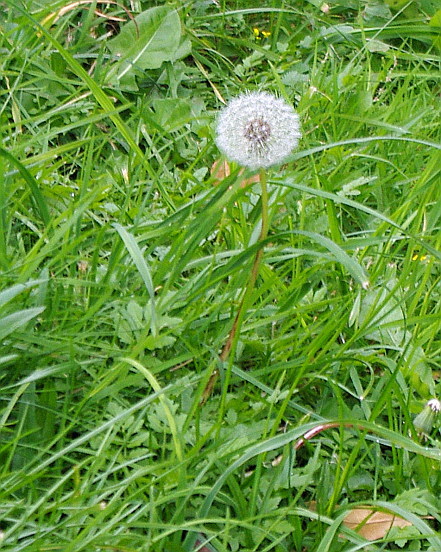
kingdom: Plantae
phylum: Tracheophyta
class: Magnoliopsida
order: Asterales
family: Asteraceae
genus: Taraxacum
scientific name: Taraxacum officinale
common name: Common dandelion
